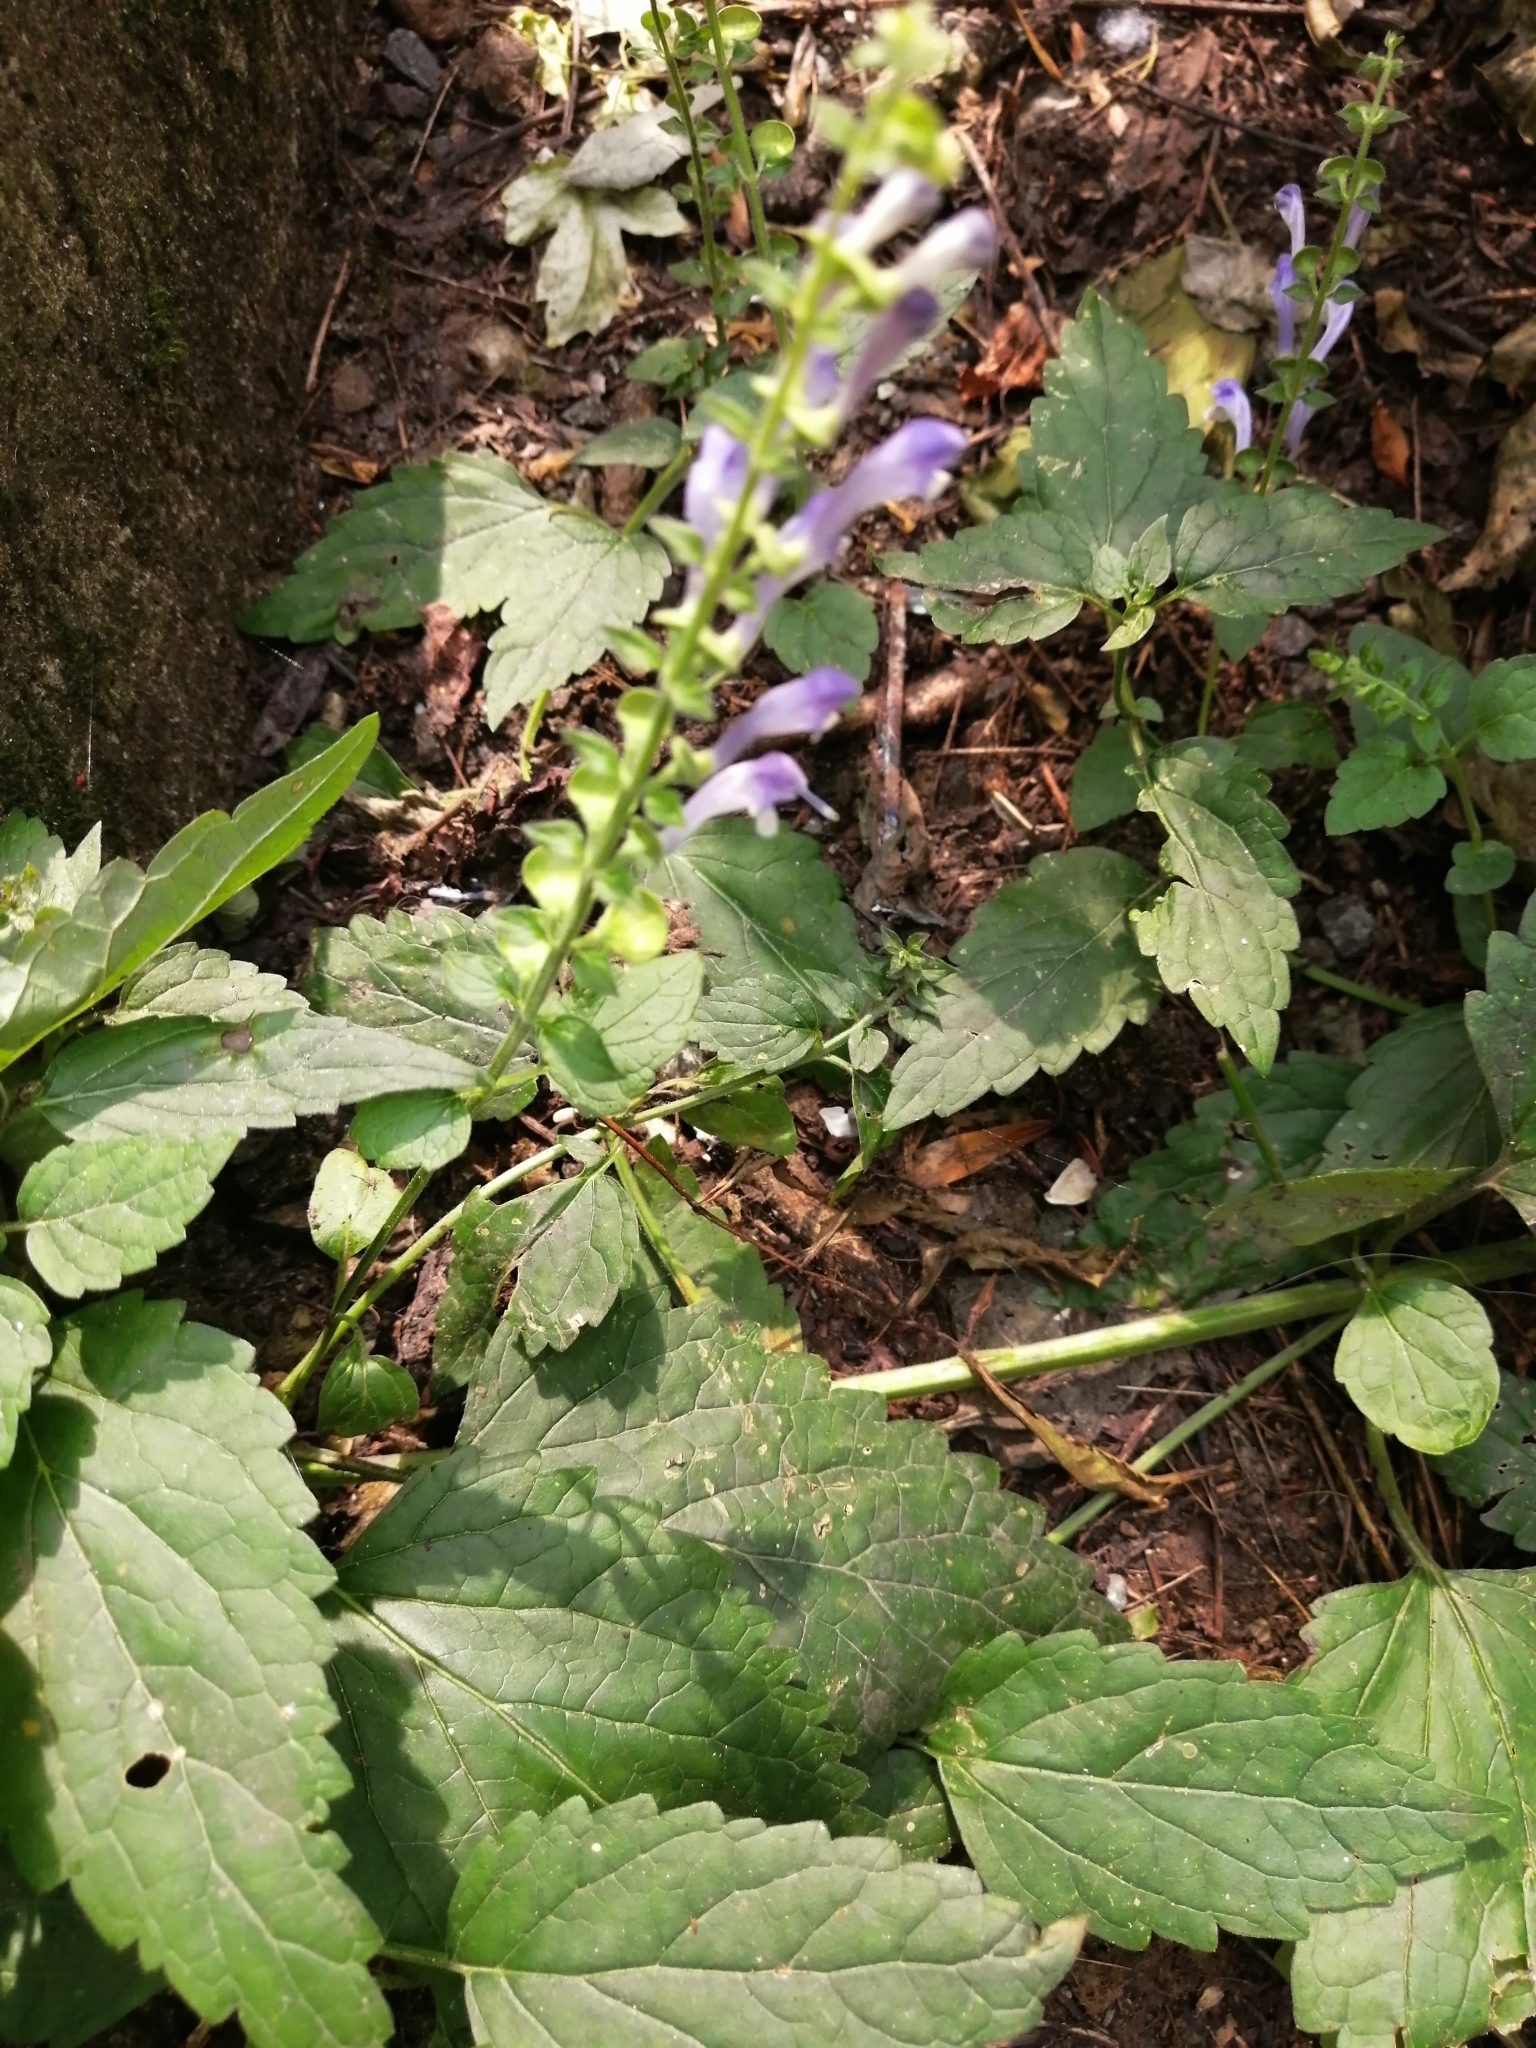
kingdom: Plantae
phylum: Tracheophyta
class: Magnoliopsida
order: Lamiales
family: Lamiaceae
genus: Scutellaria
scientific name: Scutellaria altissima
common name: Somerset skullcap
